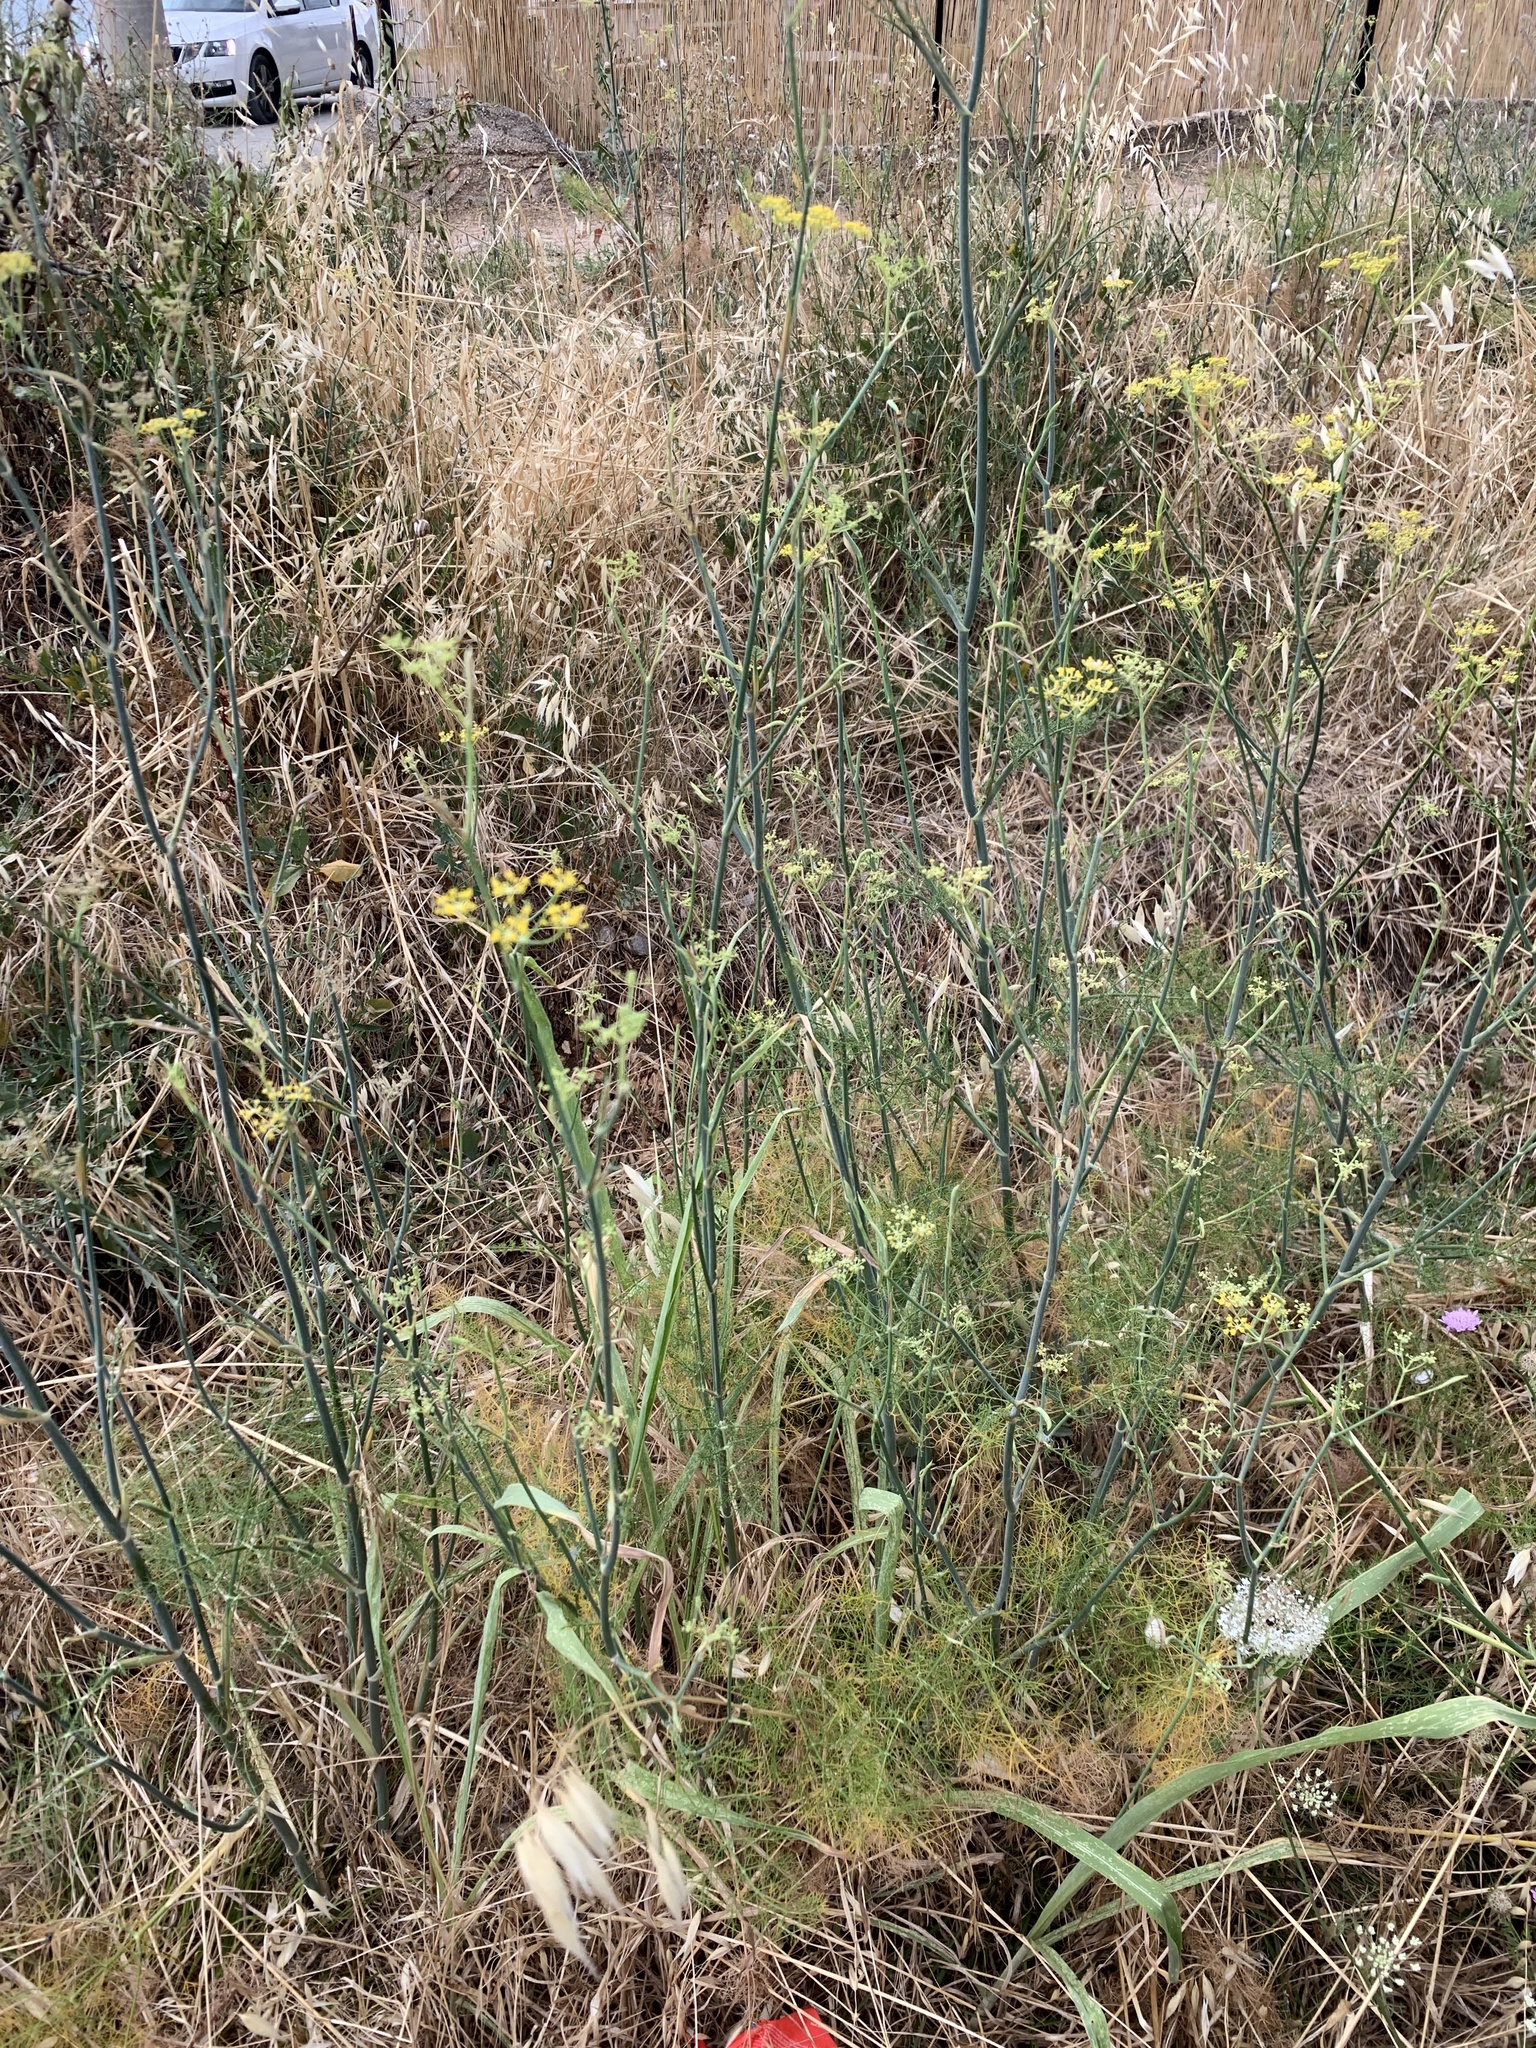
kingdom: Plantae
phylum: Tracheophyta
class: Magnoliopsida
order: Apiales
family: Apiaceae
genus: Foeniculum
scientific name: Foeniculum vulgare
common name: Fennel
